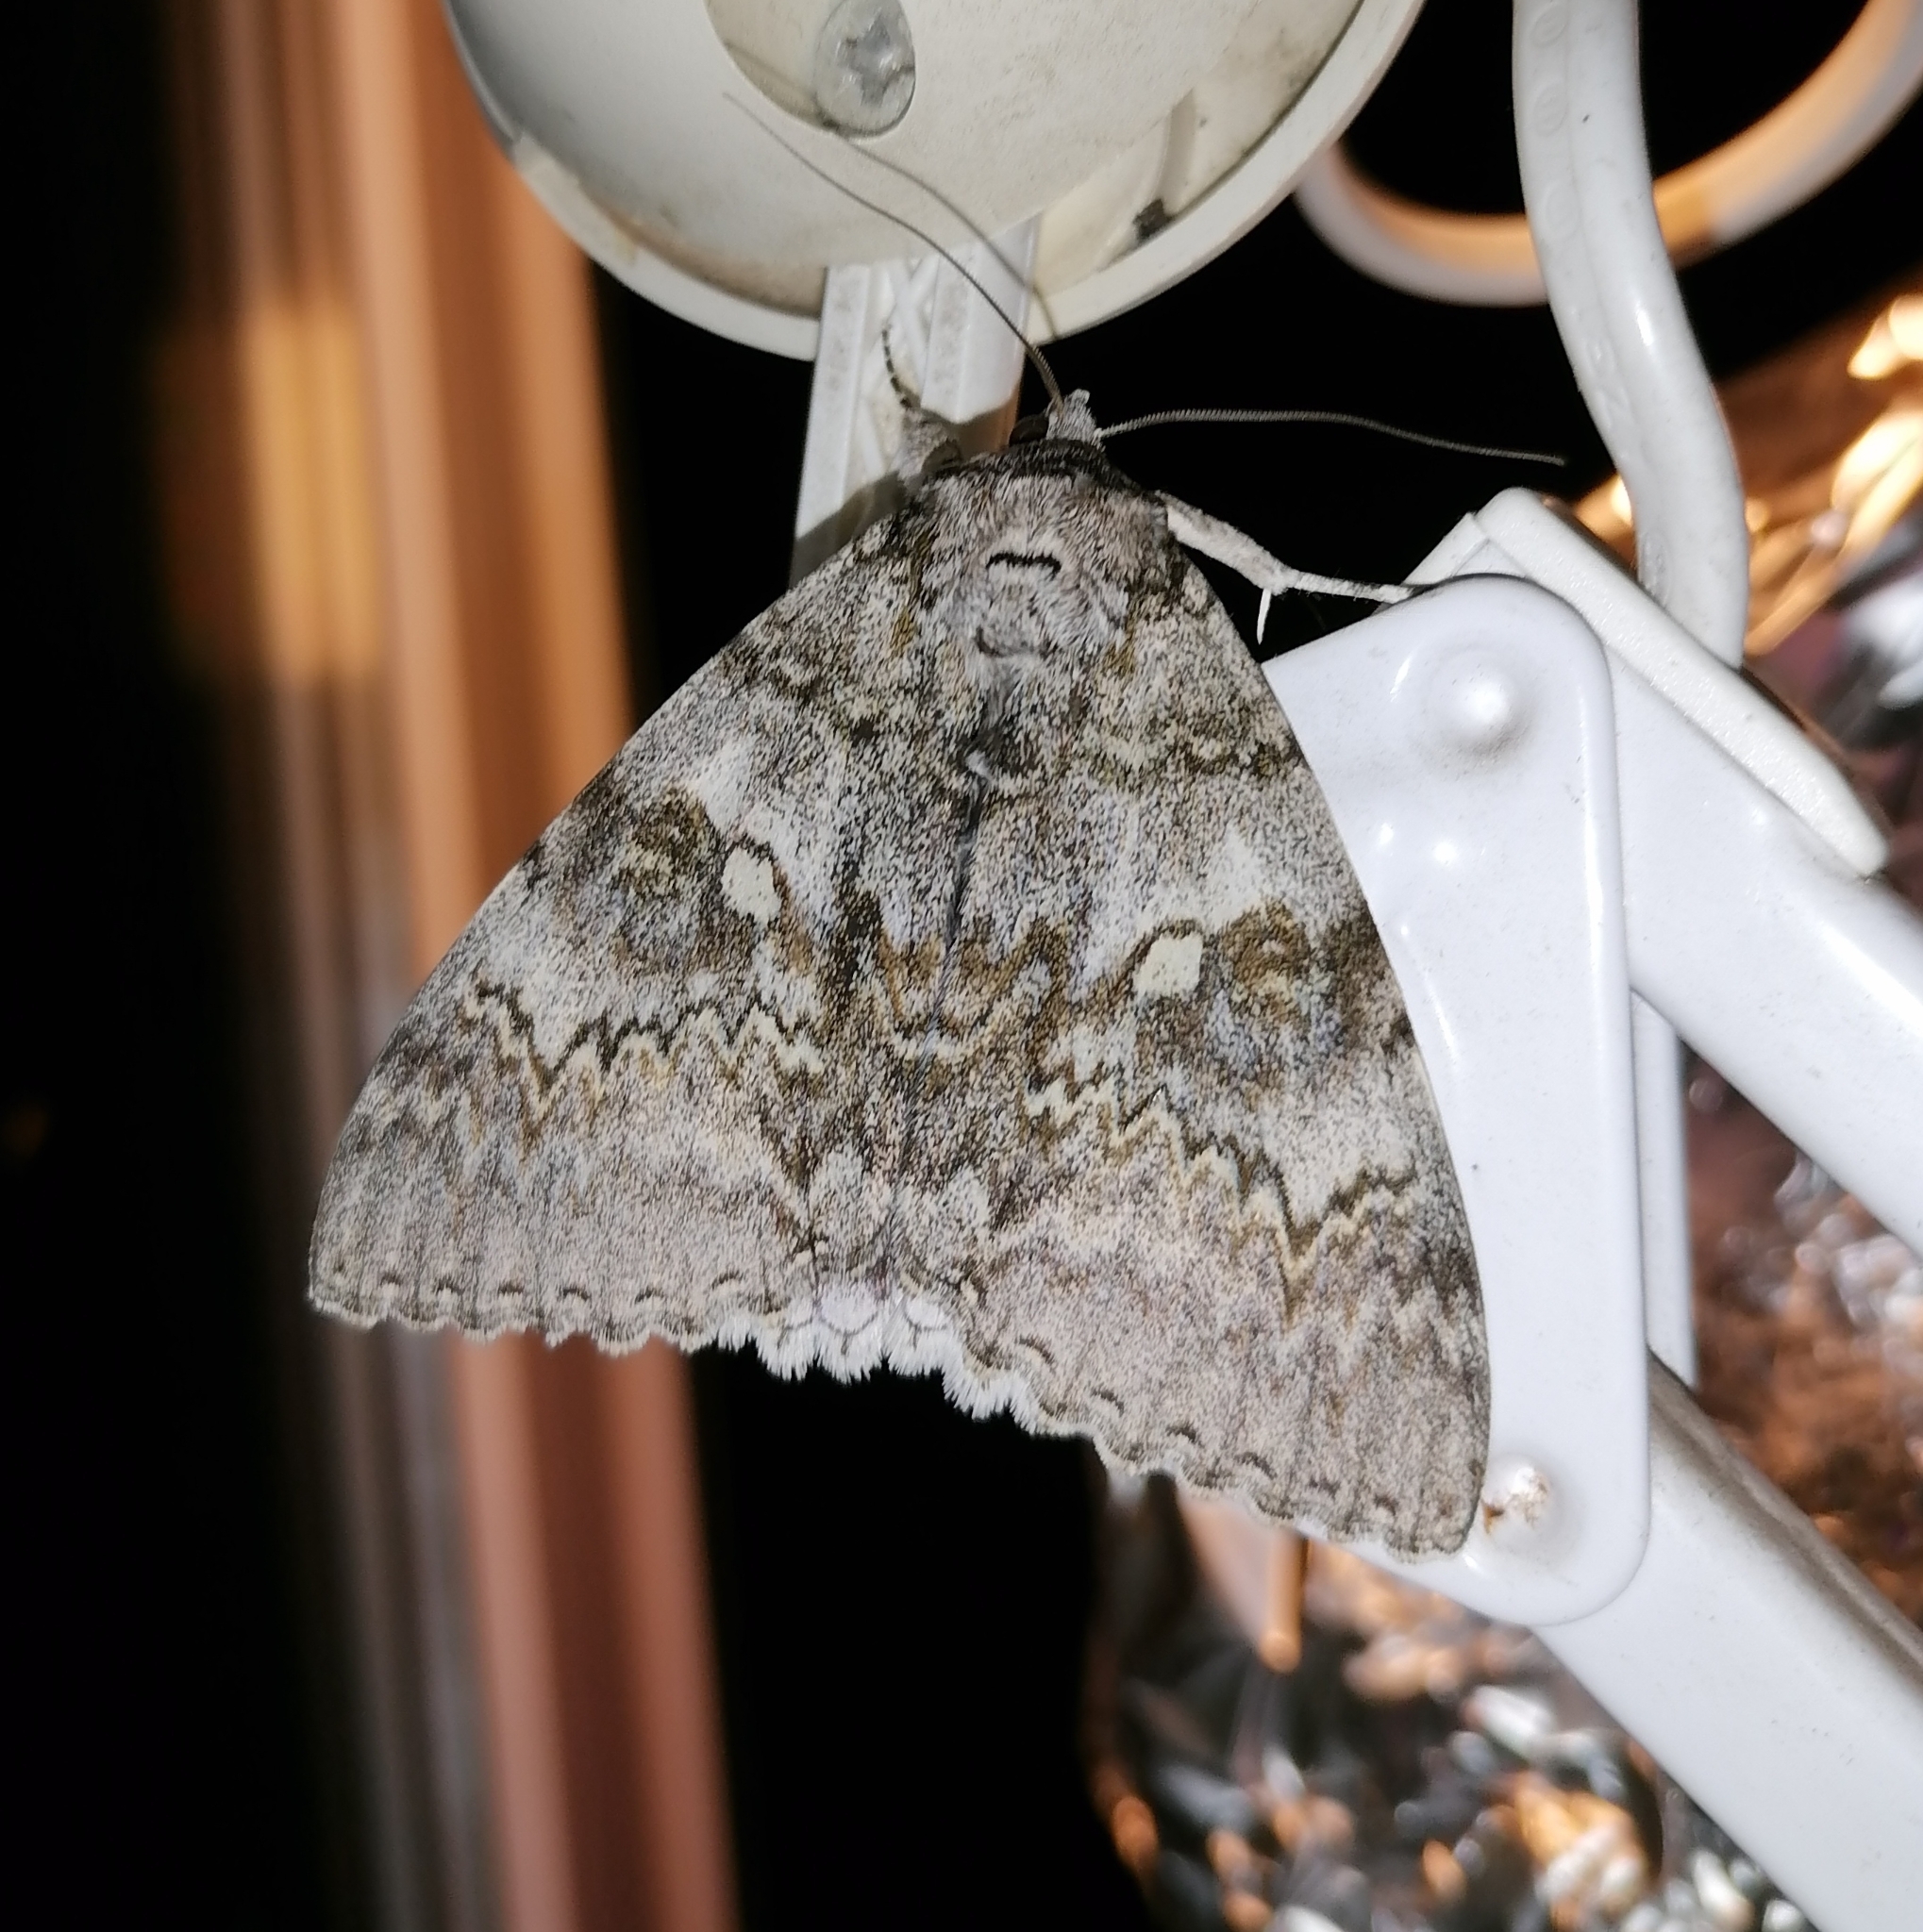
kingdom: Animalia
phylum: Arthropoda
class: Insecta
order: Lepidoptera
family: Erebidae
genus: Catocala
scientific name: Catocala fraxini
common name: Clifden nonpareil
